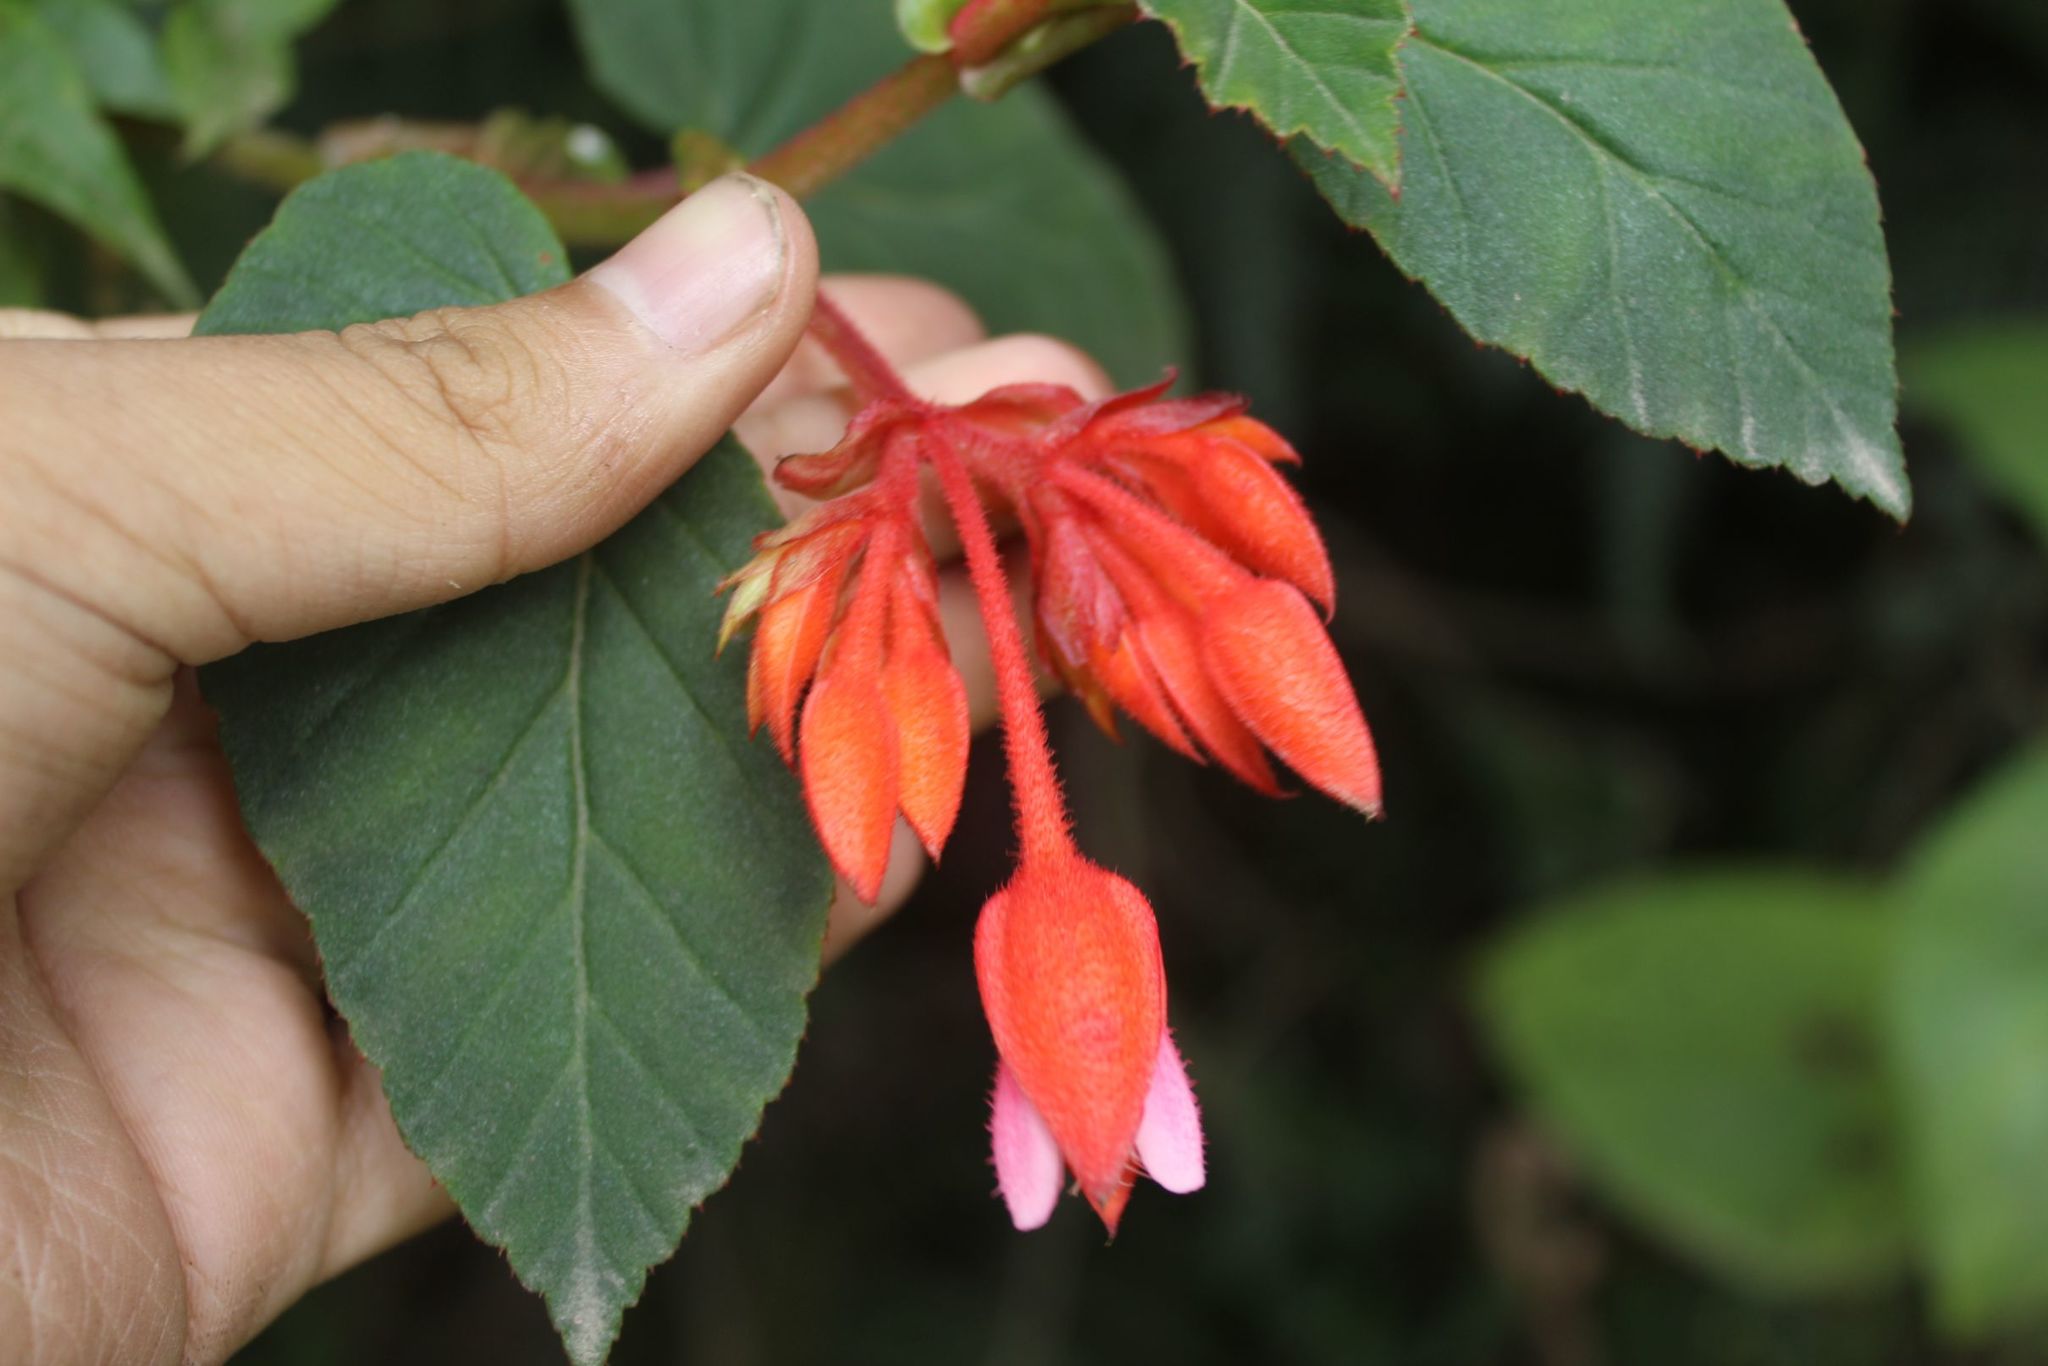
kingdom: Plantae
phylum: Tracheophyta
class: Magnoliopsida
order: Cucurbitales
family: Begoniaceae
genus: Begonia
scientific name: Begonia ferruginea
